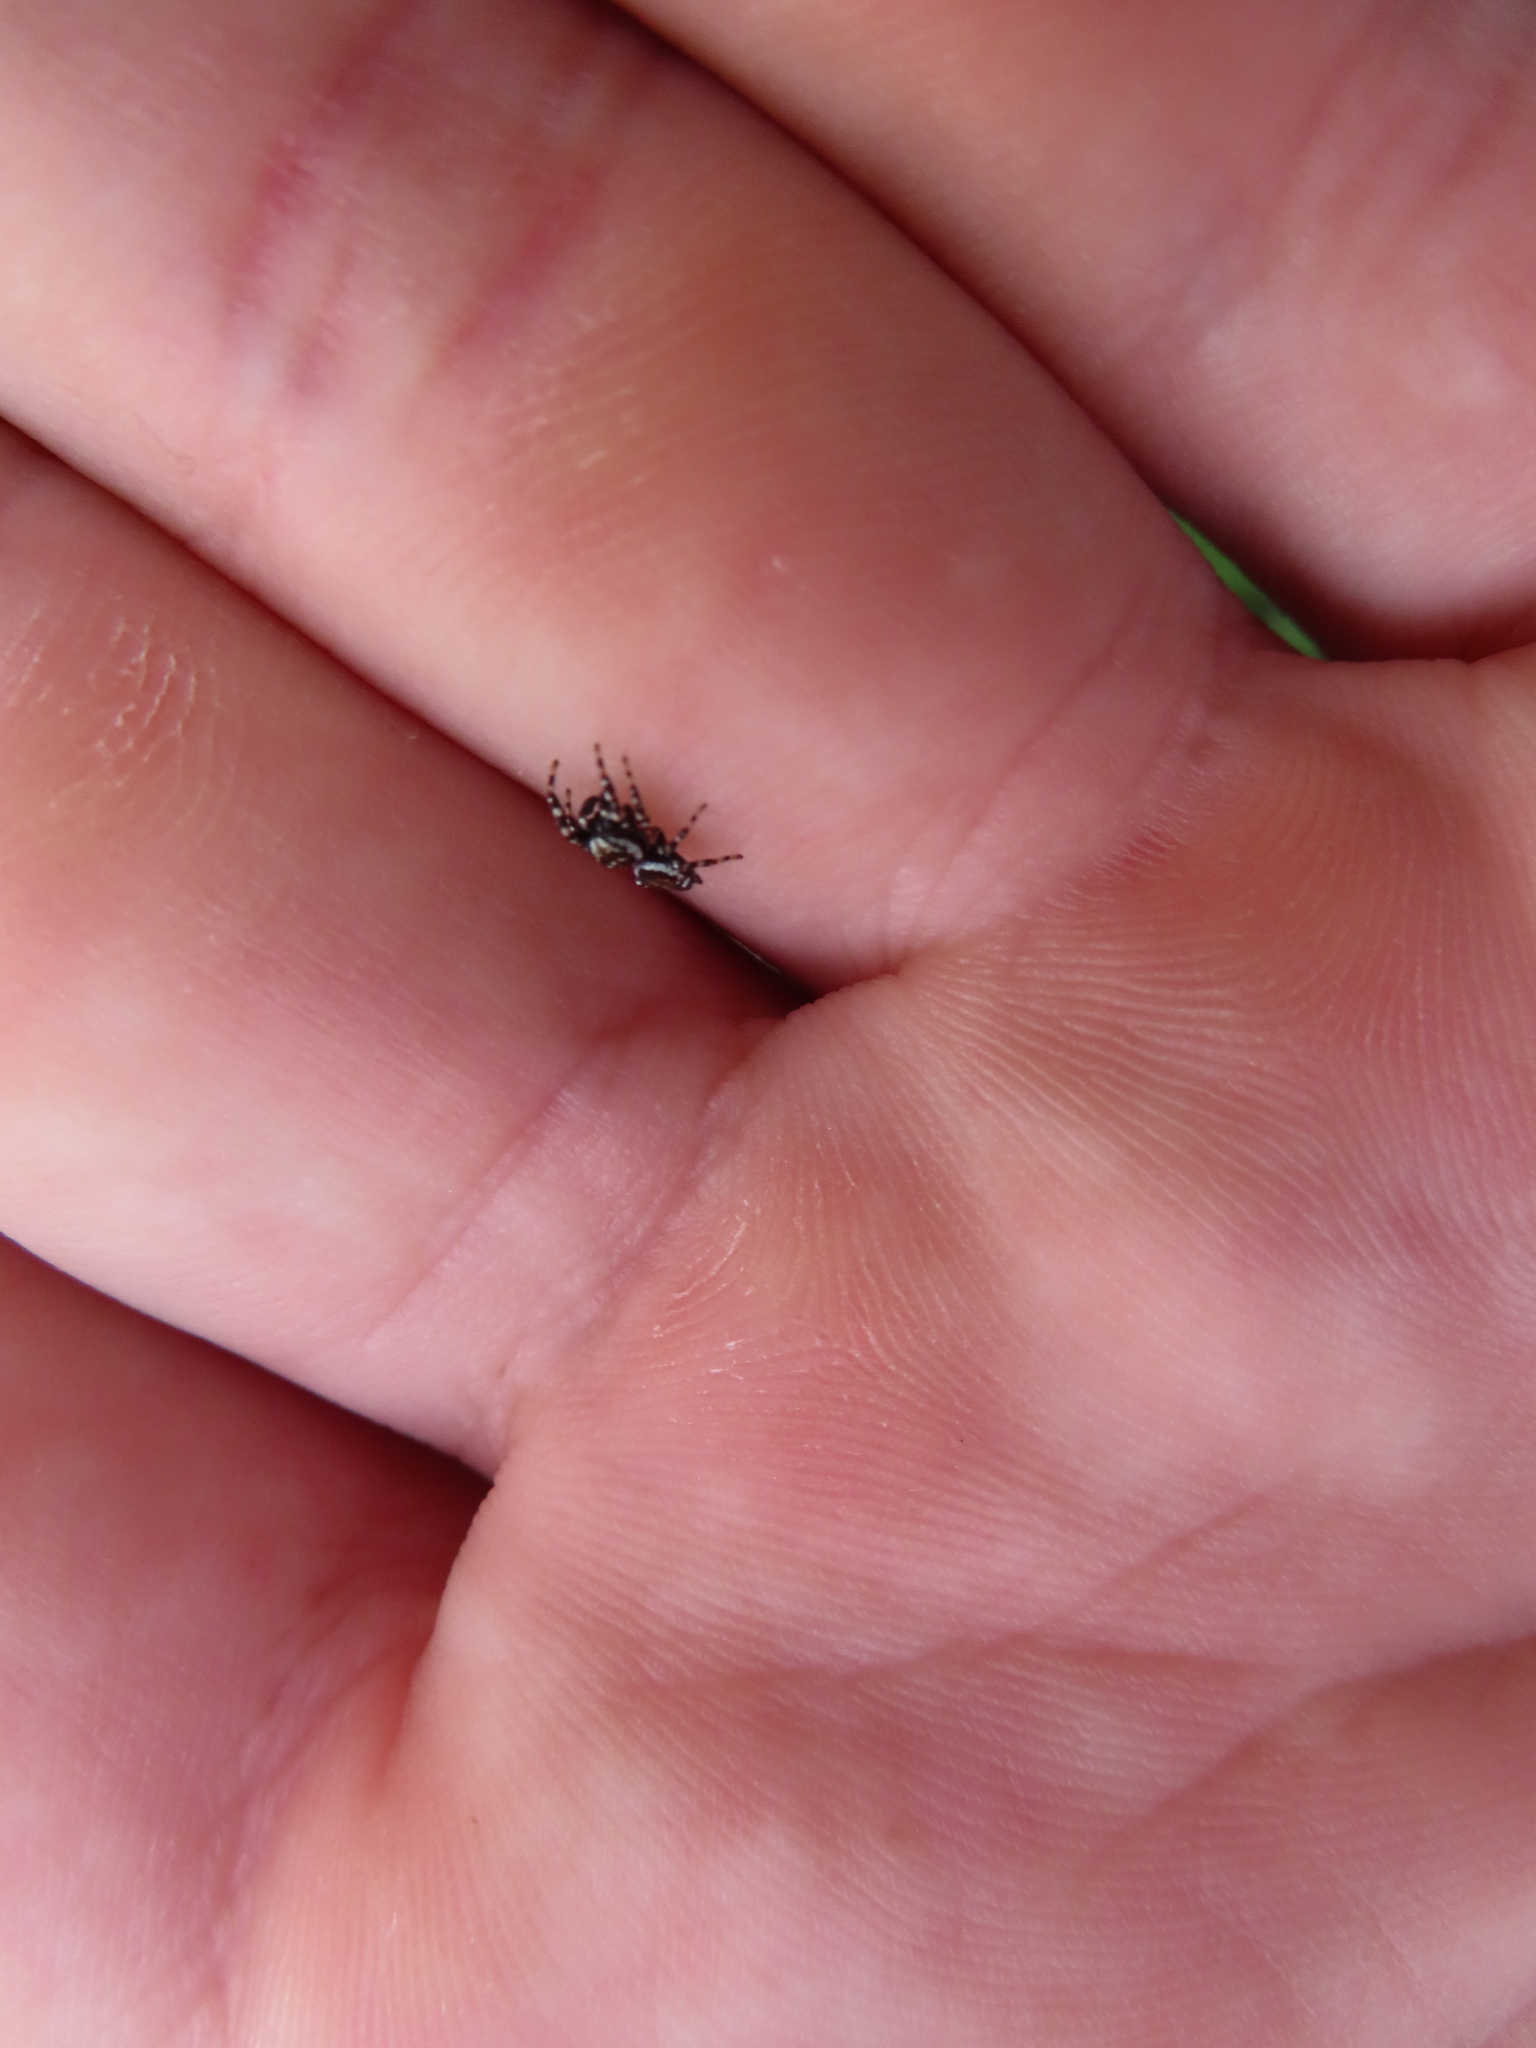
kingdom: Animalia
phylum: Arthropoda
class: Arachnida
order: Araneae
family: Salticidae
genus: Pelegrina
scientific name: Pelegrina galathea
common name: Jumping spiders
